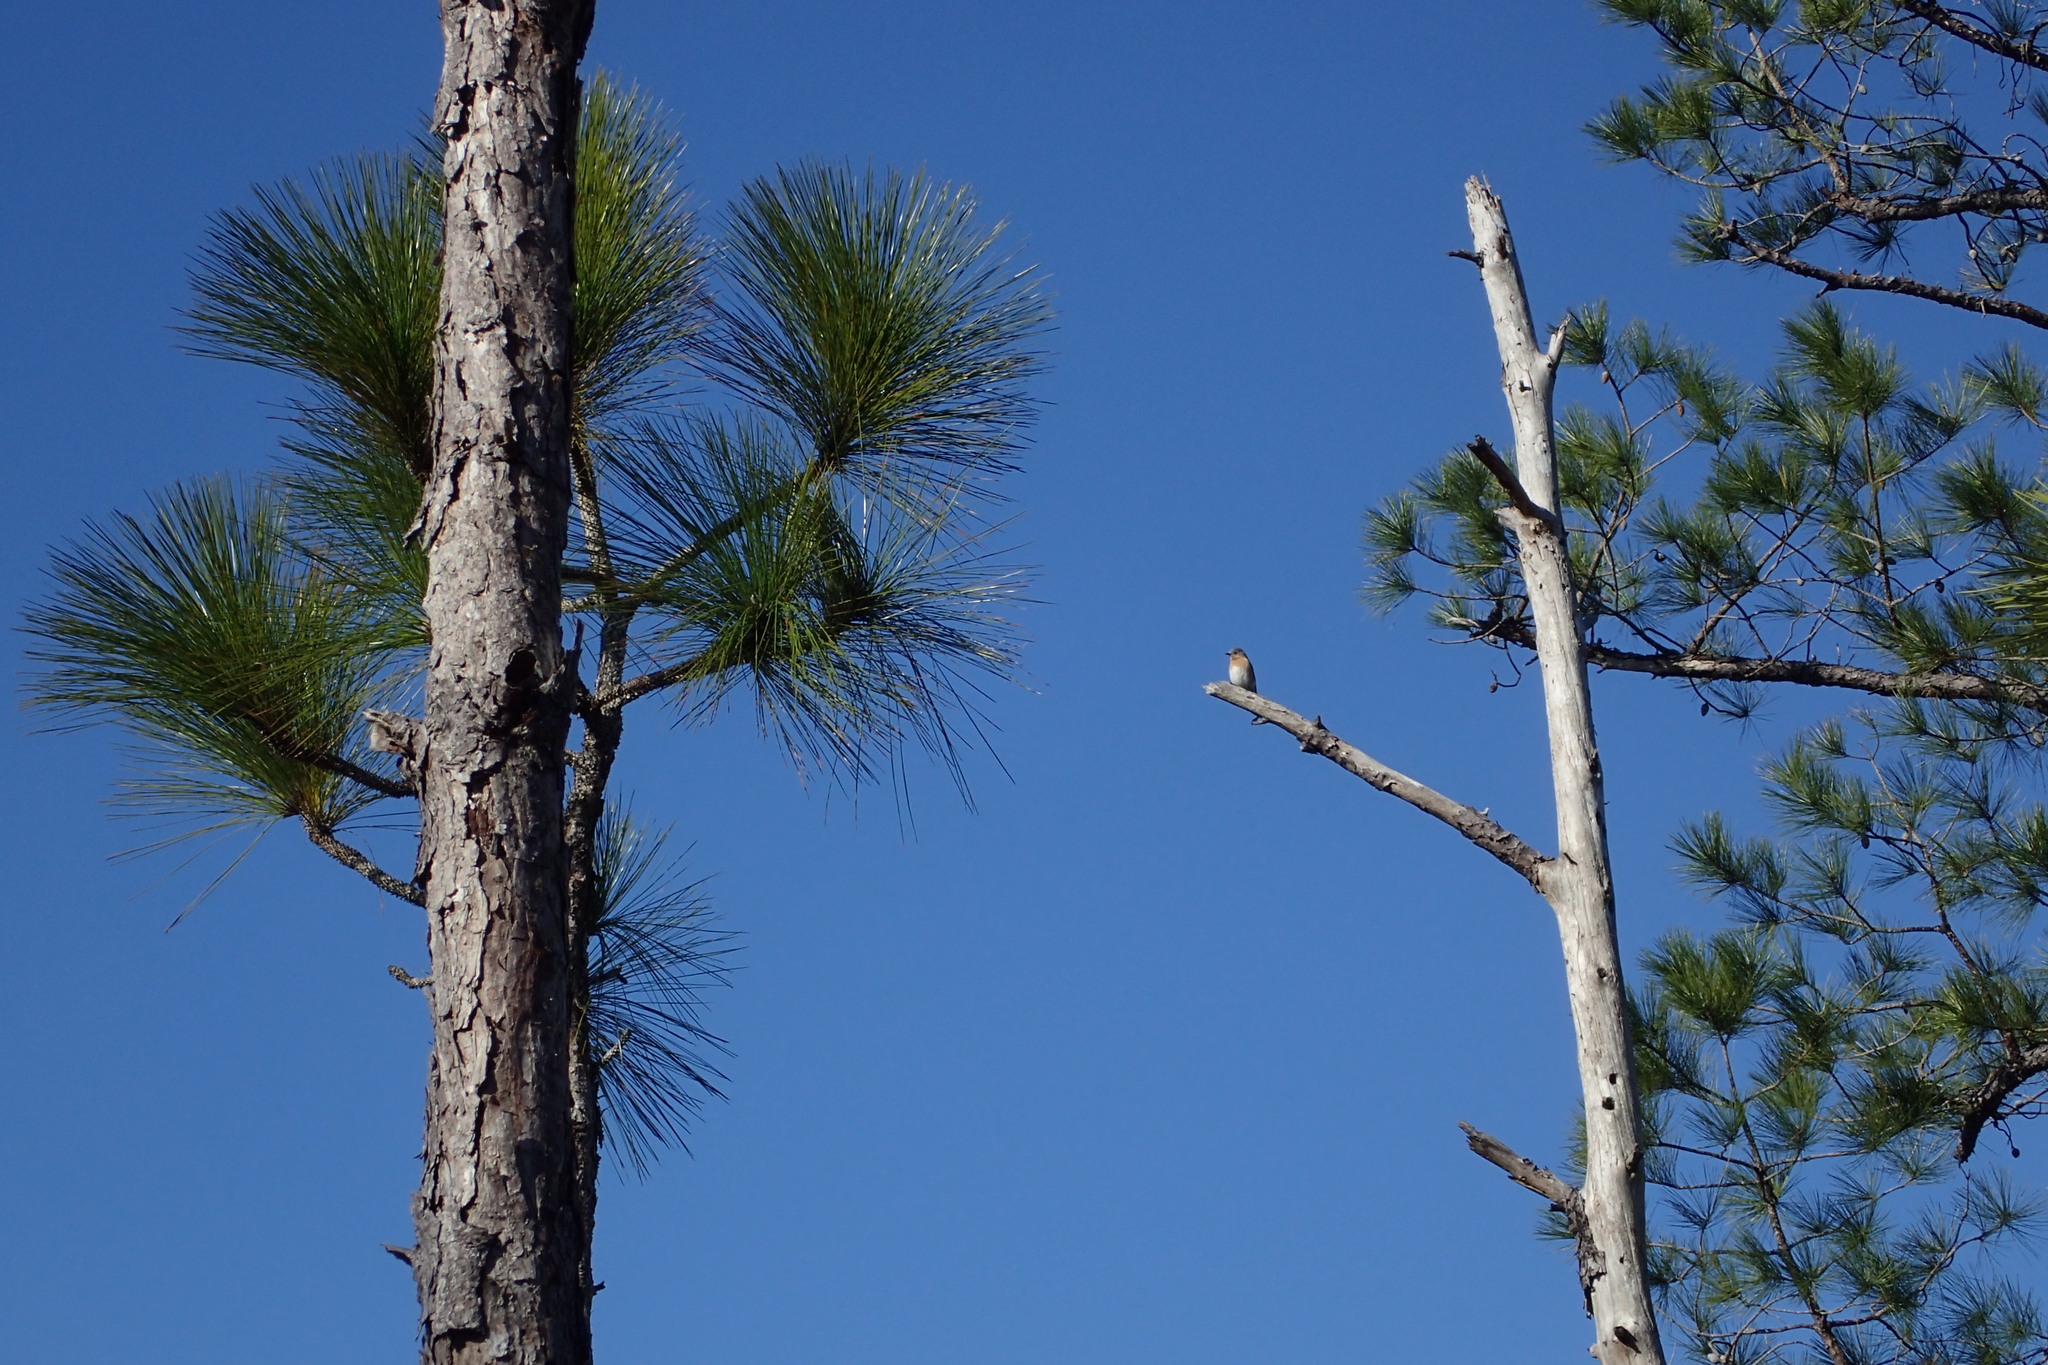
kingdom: Animalia
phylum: Chordata
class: Aves
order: Passeriformes
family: Turdidae
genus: Sialia
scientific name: Sialia sialis
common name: Eastern bluebird
